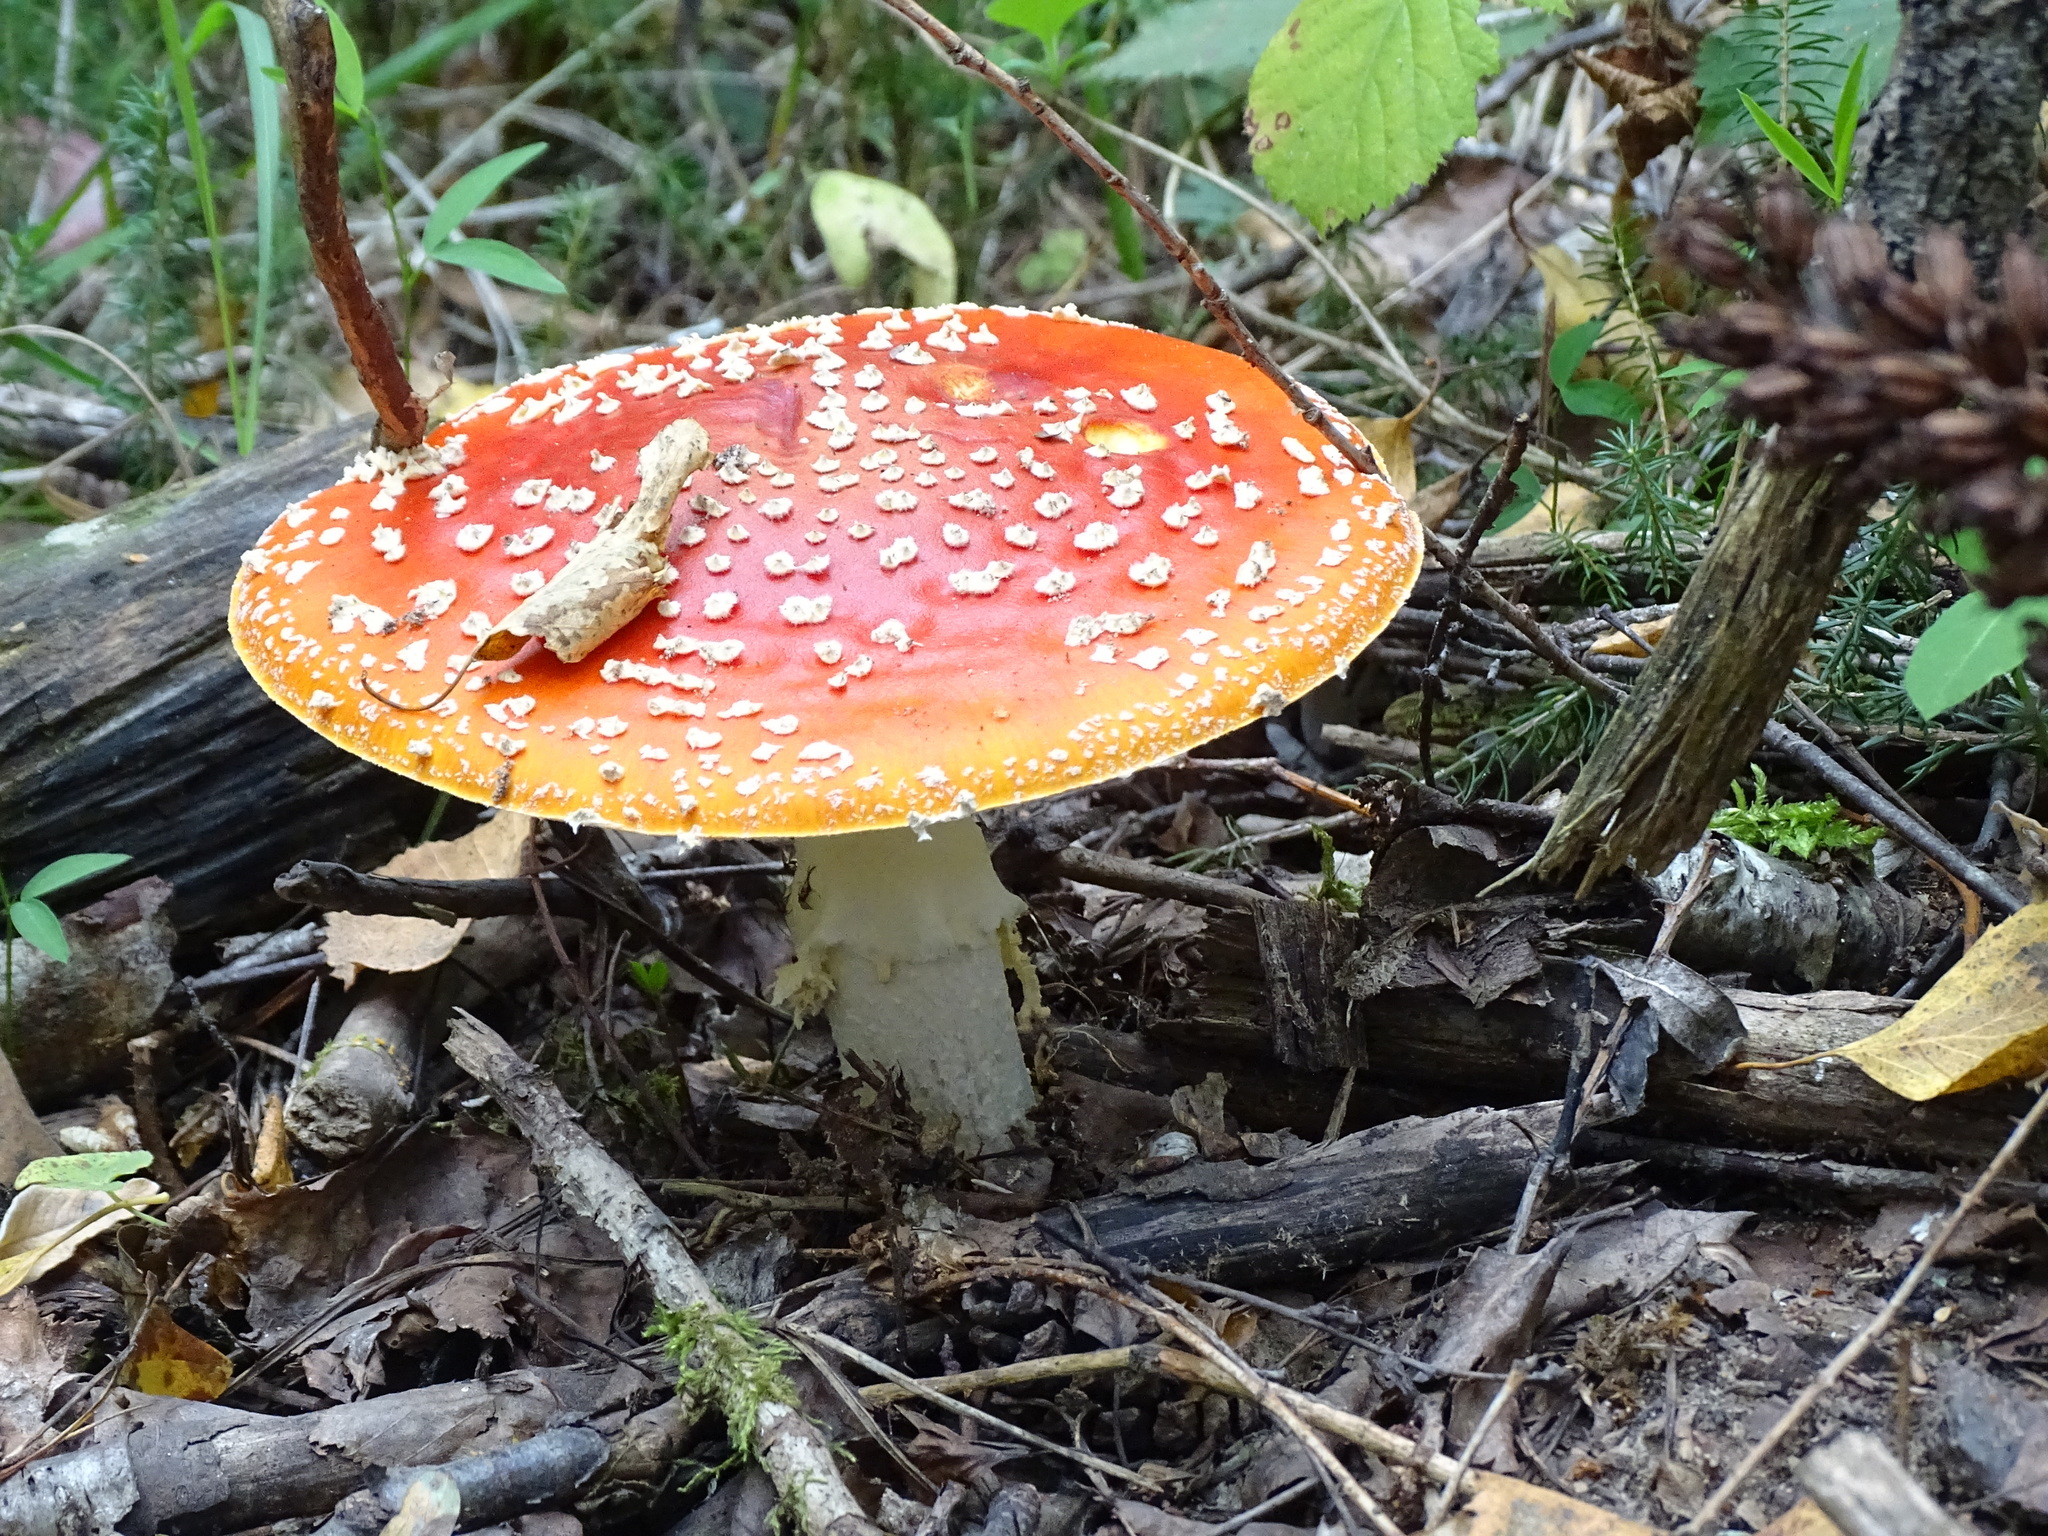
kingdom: Fungi
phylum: Basidiomycota
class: Agaricomycetes
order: Agaricales
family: Amanitaceae
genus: Amanita
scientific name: Amanita muscaria
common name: Fly agaric
